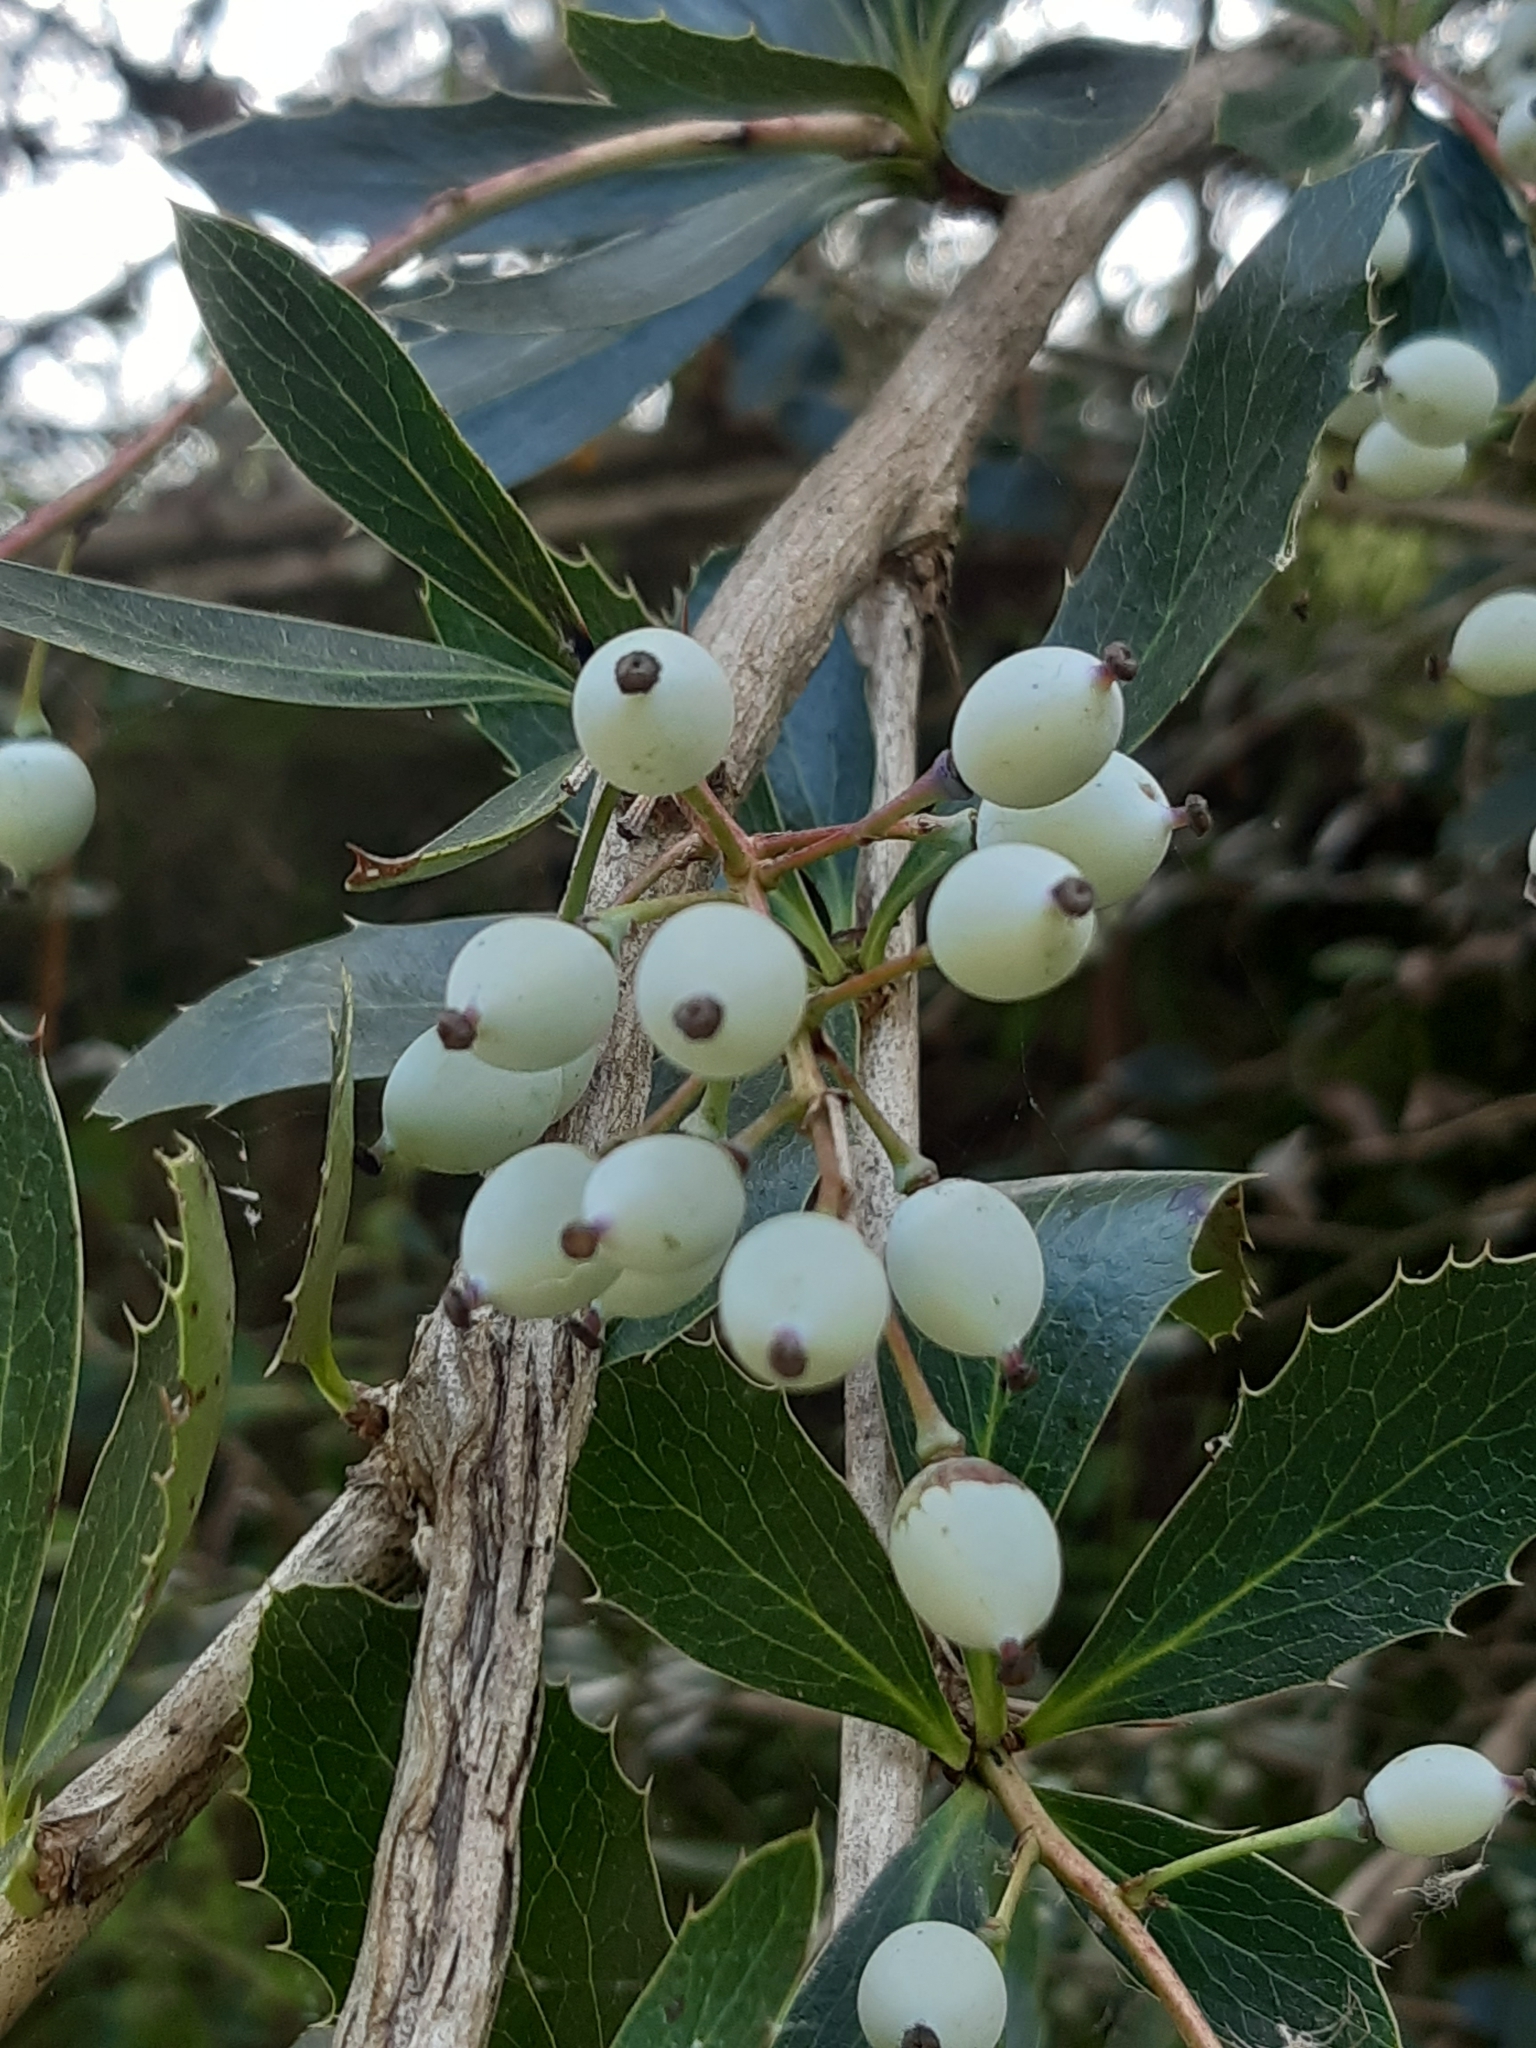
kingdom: Plantae
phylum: Tracheophyta
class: Magnoliopsida
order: Ranunculales
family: Berberidaceae
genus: Berberis
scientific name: Berberis glaucocarpa
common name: Great barberry
